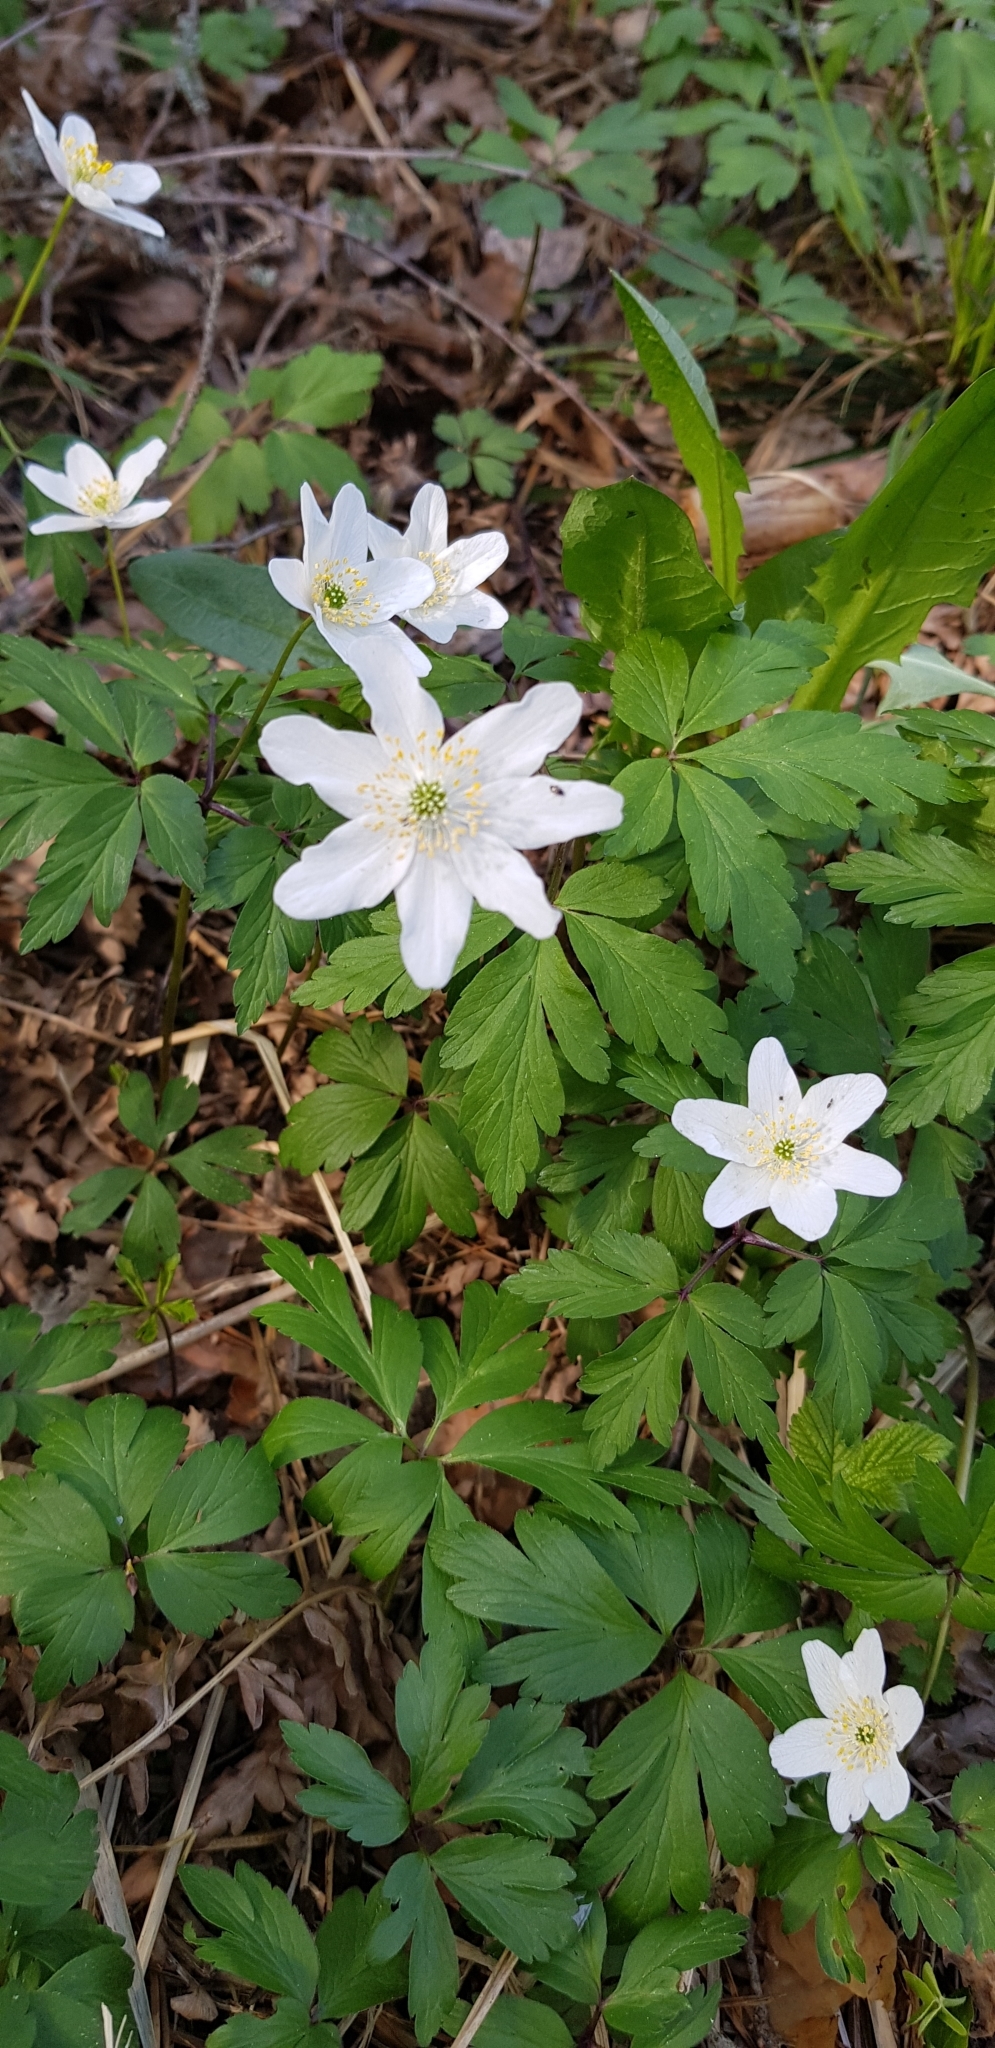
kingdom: Plantae
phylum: Tracheophyta
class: Magnoliopsida
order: Ranunculales
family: Ranunculaceae
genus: Anemone
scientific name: Anemone nemorosa
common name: Wood anemone
